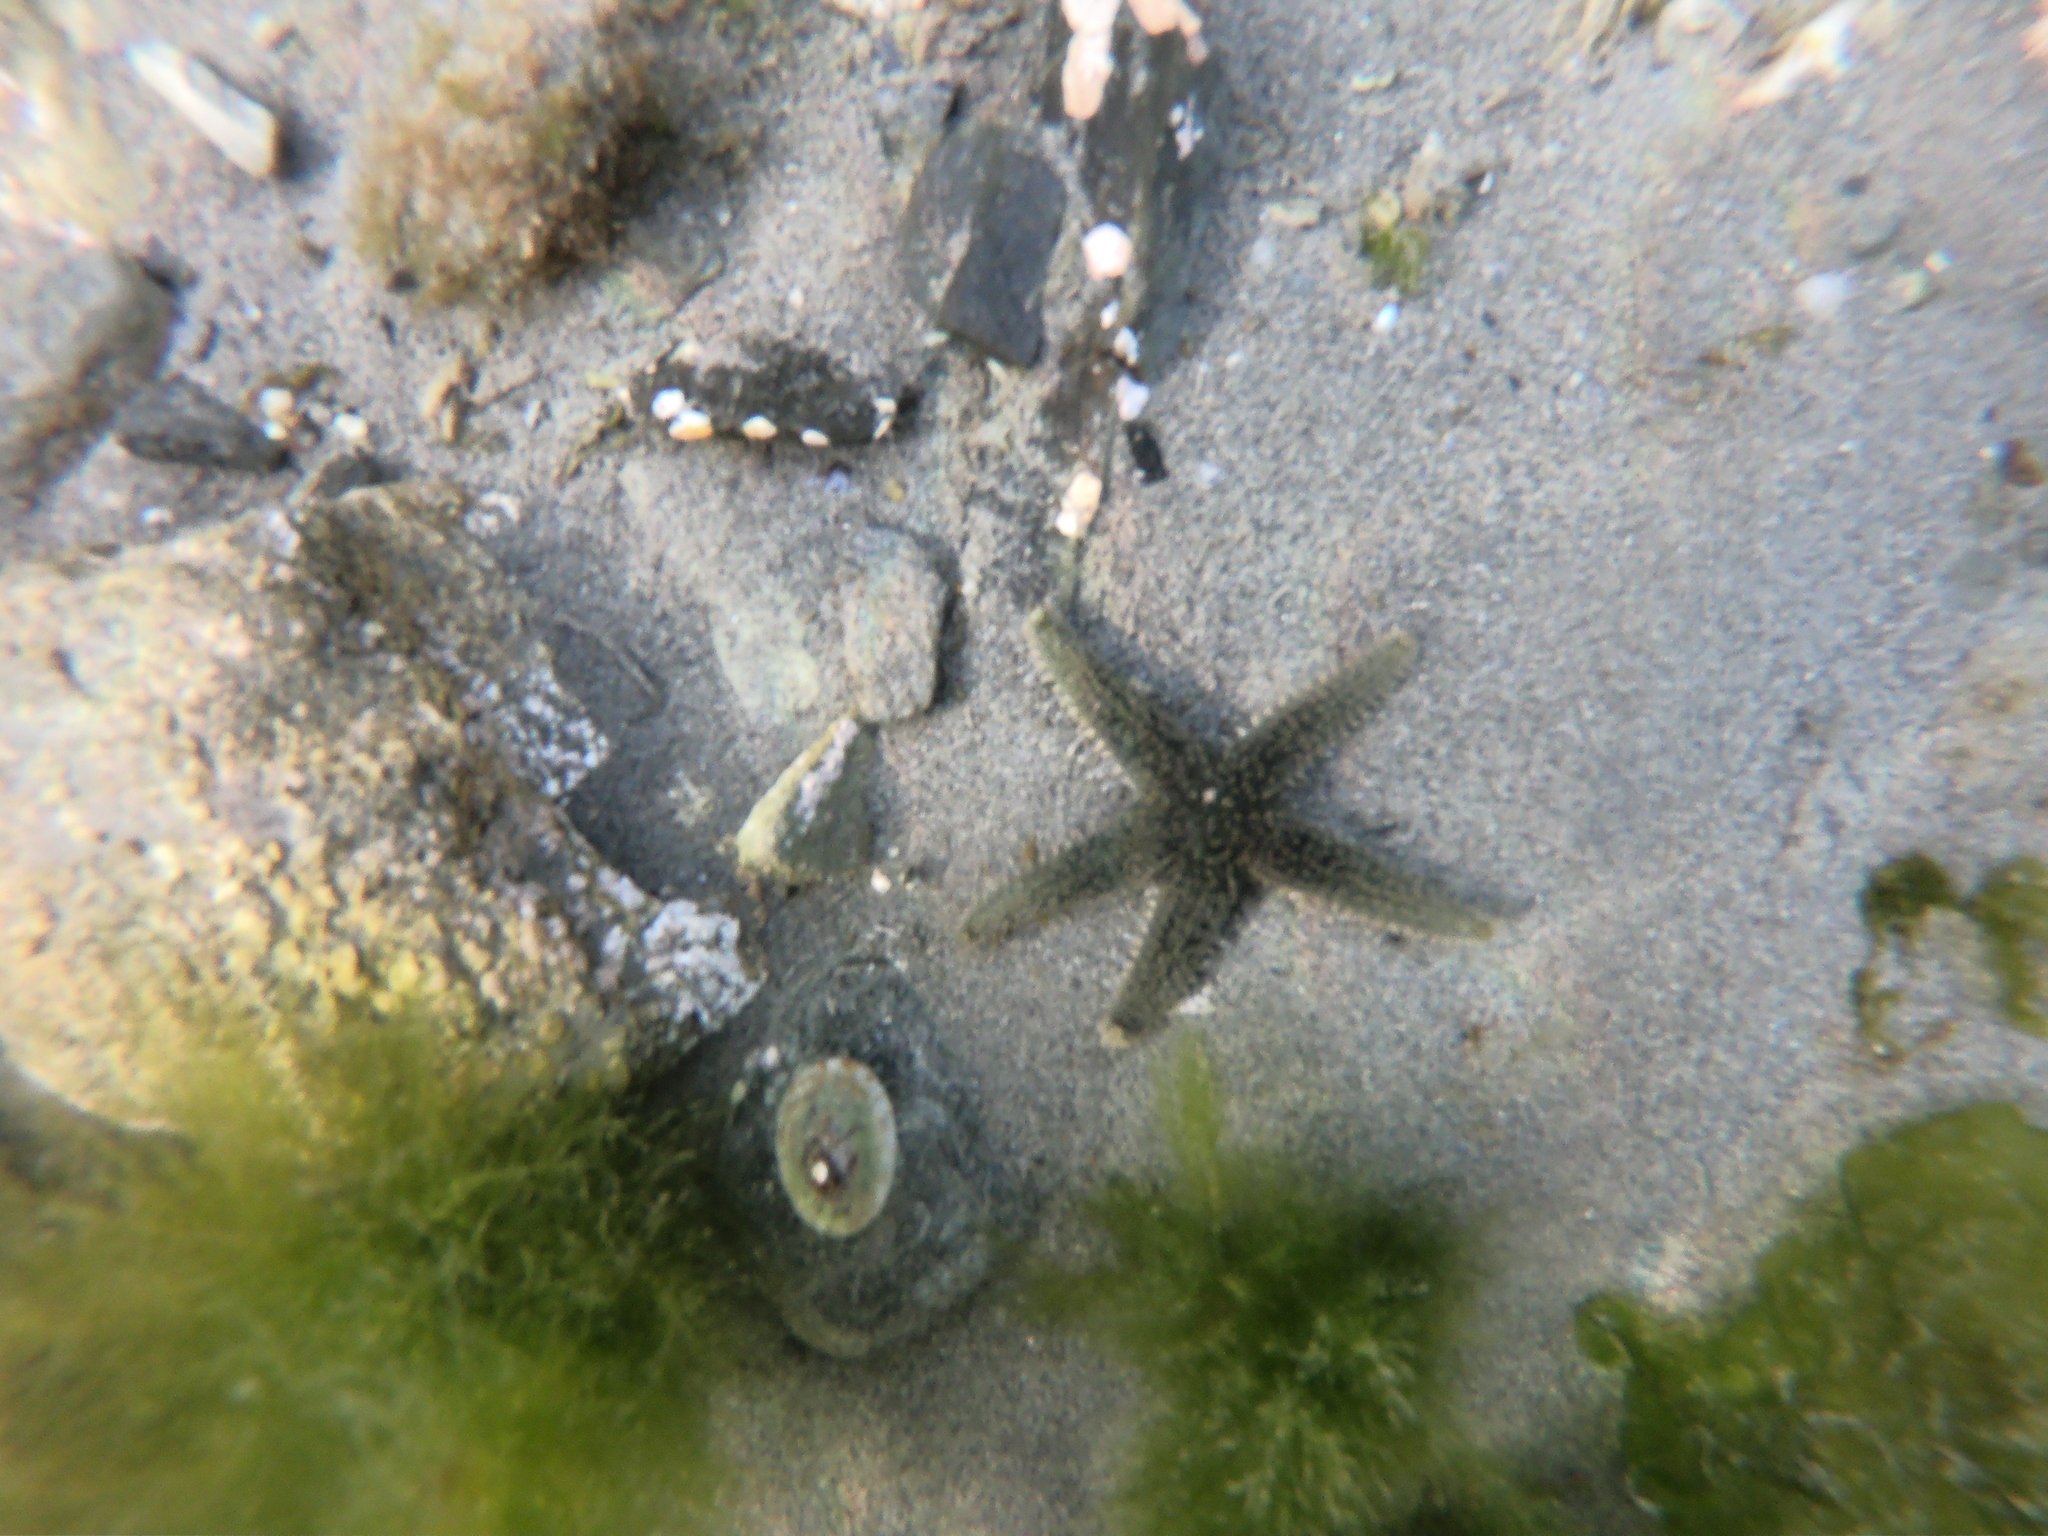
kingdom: Animalia
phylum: Echinodermata
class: Asteroidea
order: Forcipulatida
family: Asteriidae
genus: Anasterias
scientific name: Anasterias antarctica
